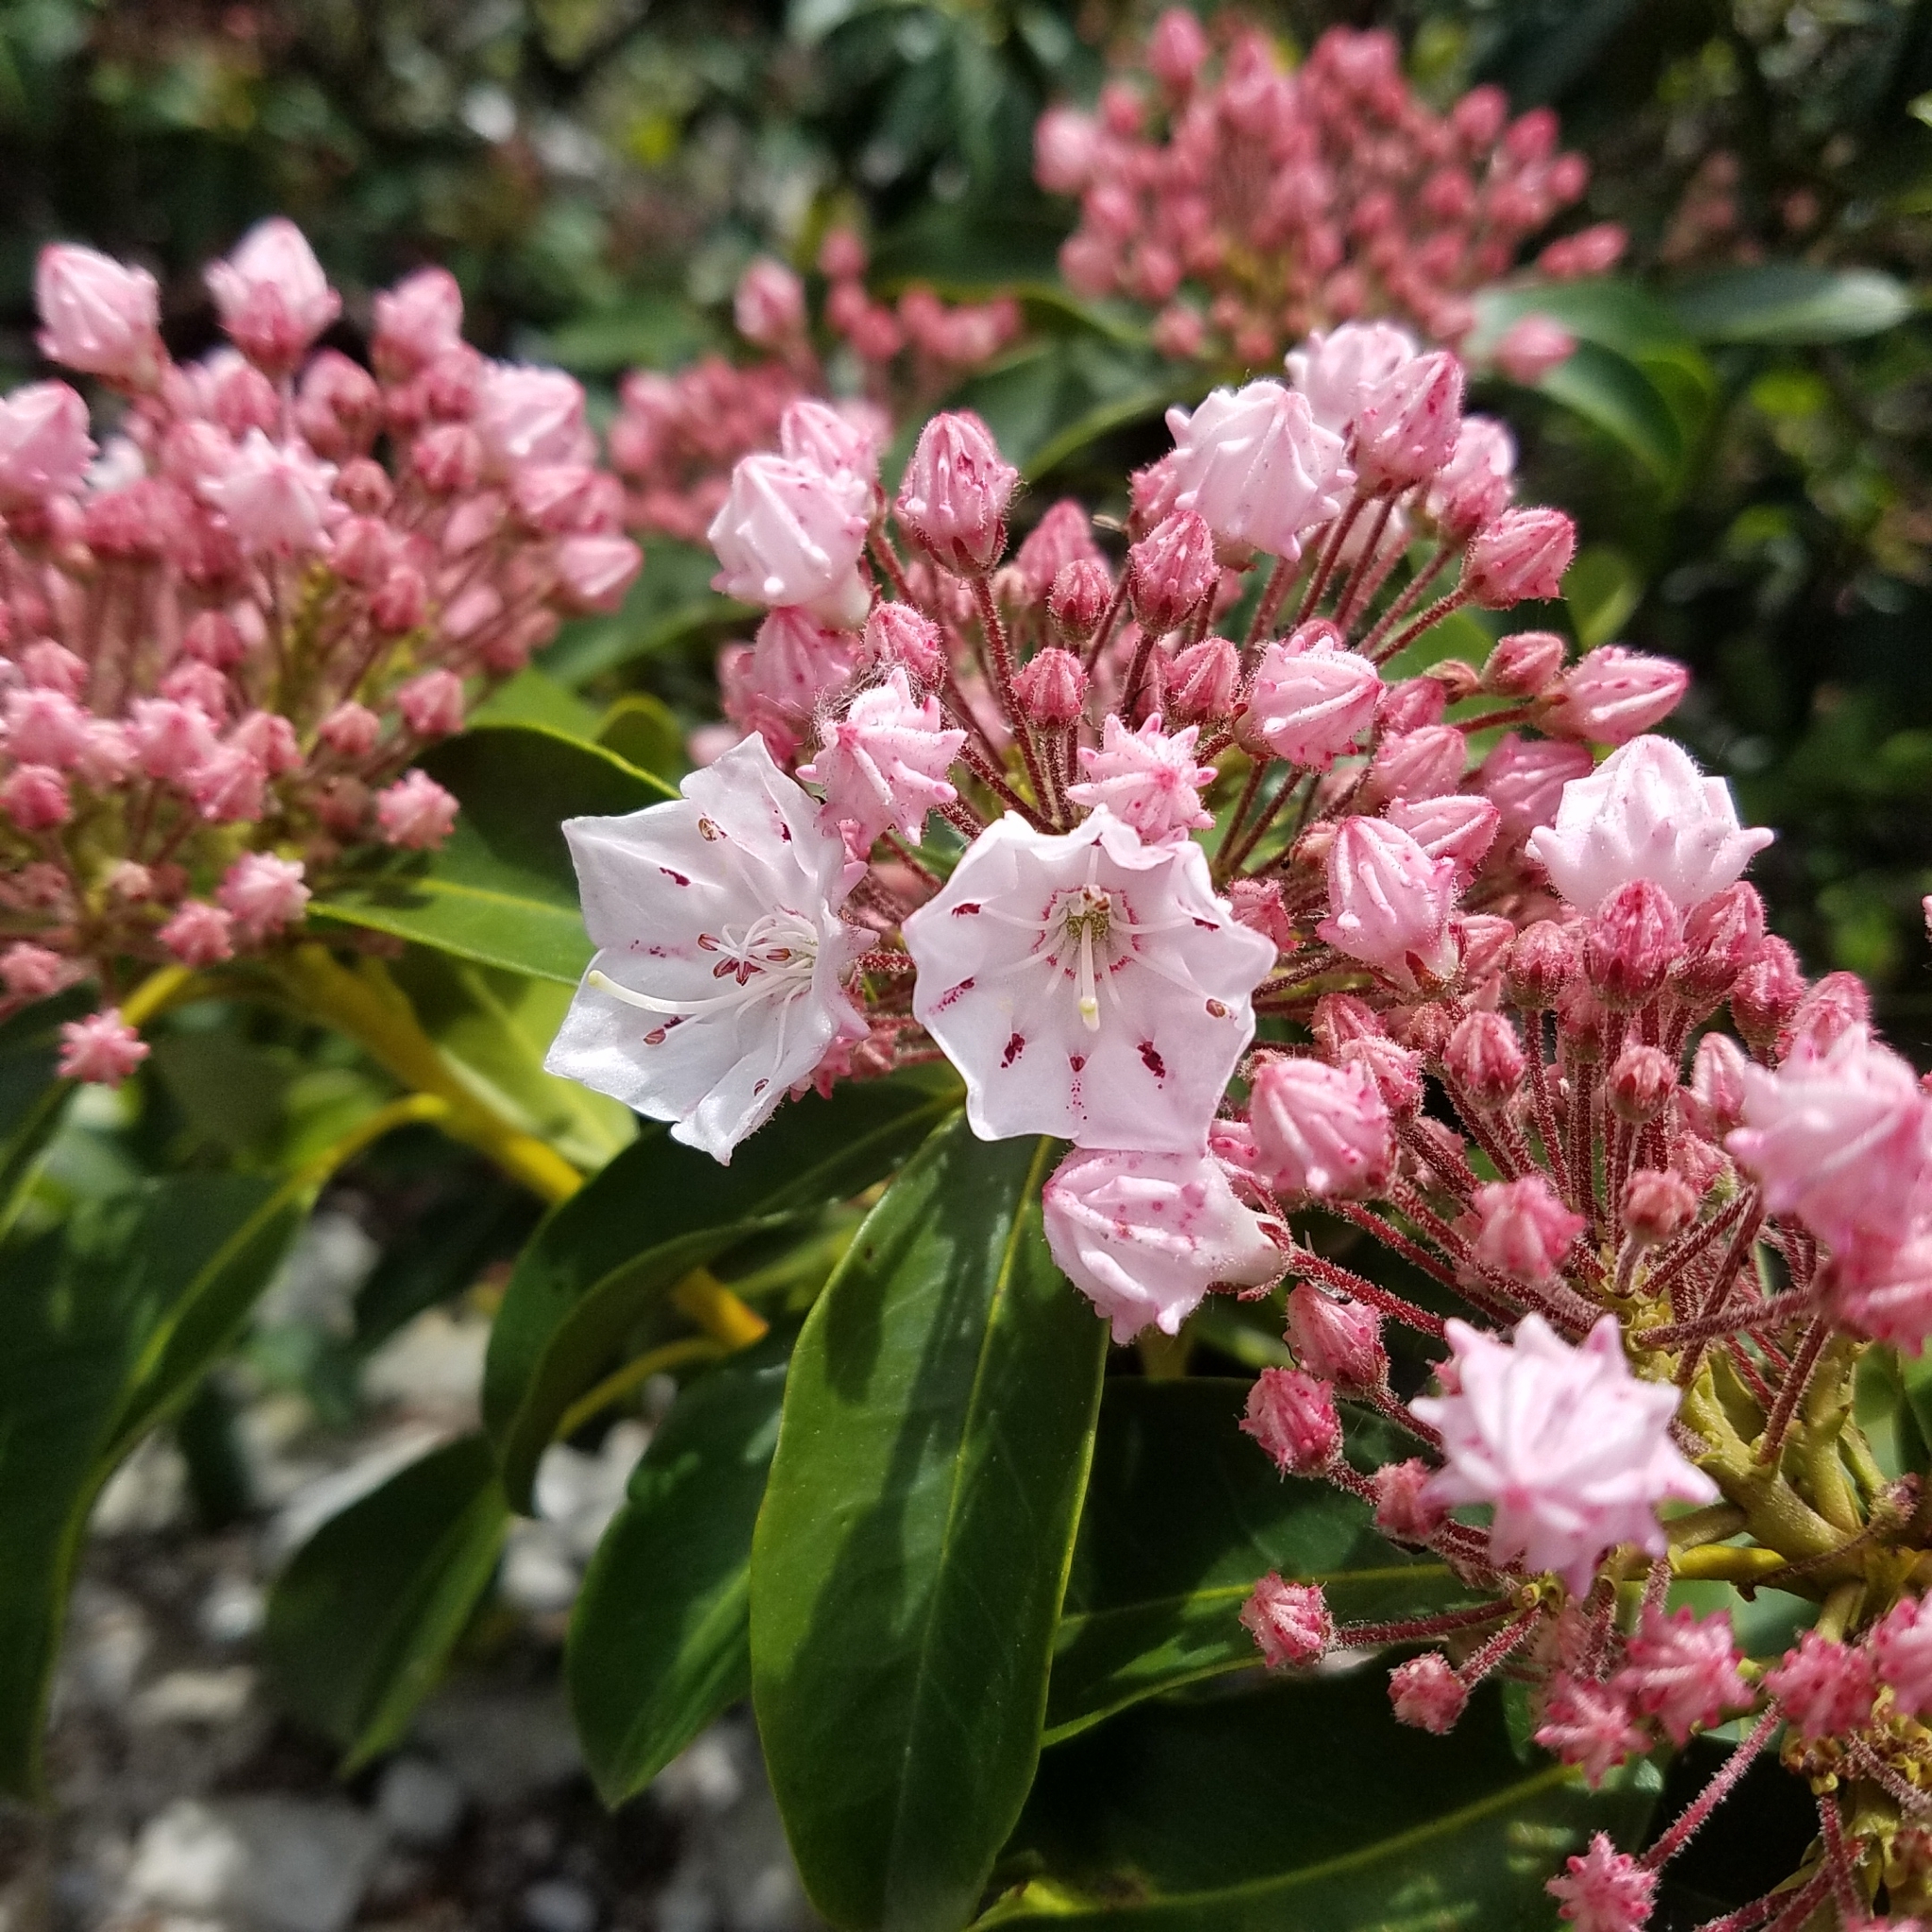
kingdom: Plantae
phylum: Tracheophyta
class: Magnoliopsida
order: Ericales
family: Ericaceae
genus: Kalmia
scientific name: Kalmia latifolia
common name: Mountain-laurel
